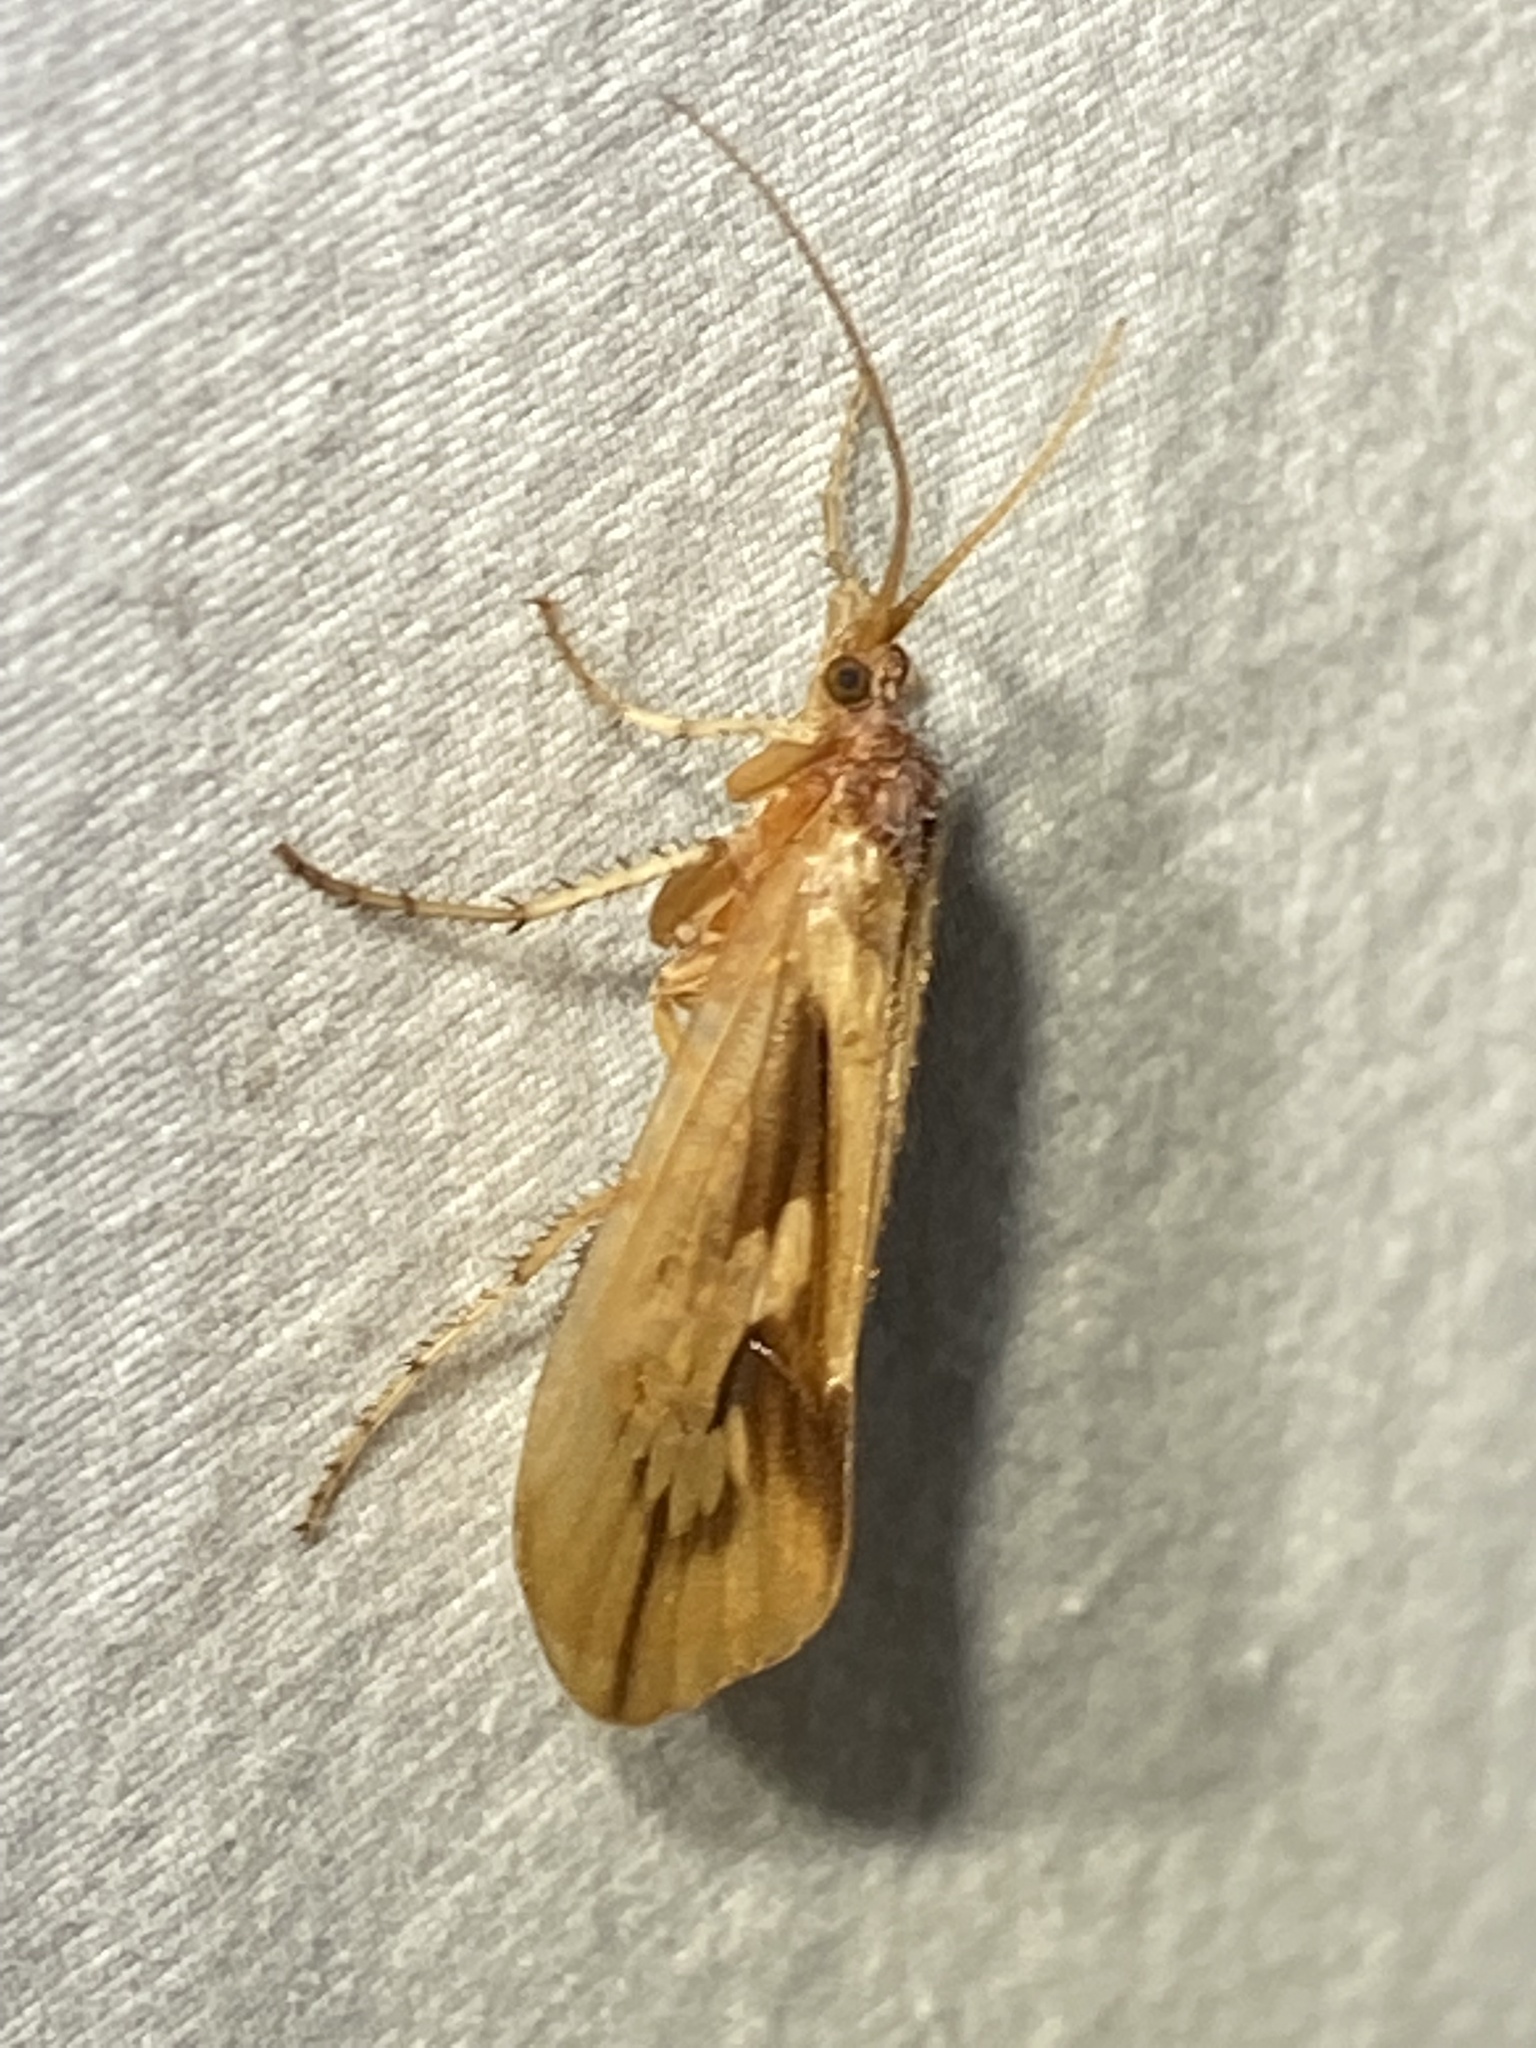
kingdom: Animalia
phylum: Arthropoda
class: Insecta
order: Trichoptera
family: Limnephilidae
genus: Platycentropus
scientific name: Platycentropus radiatus
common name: Chocolate-and-cream sedge
